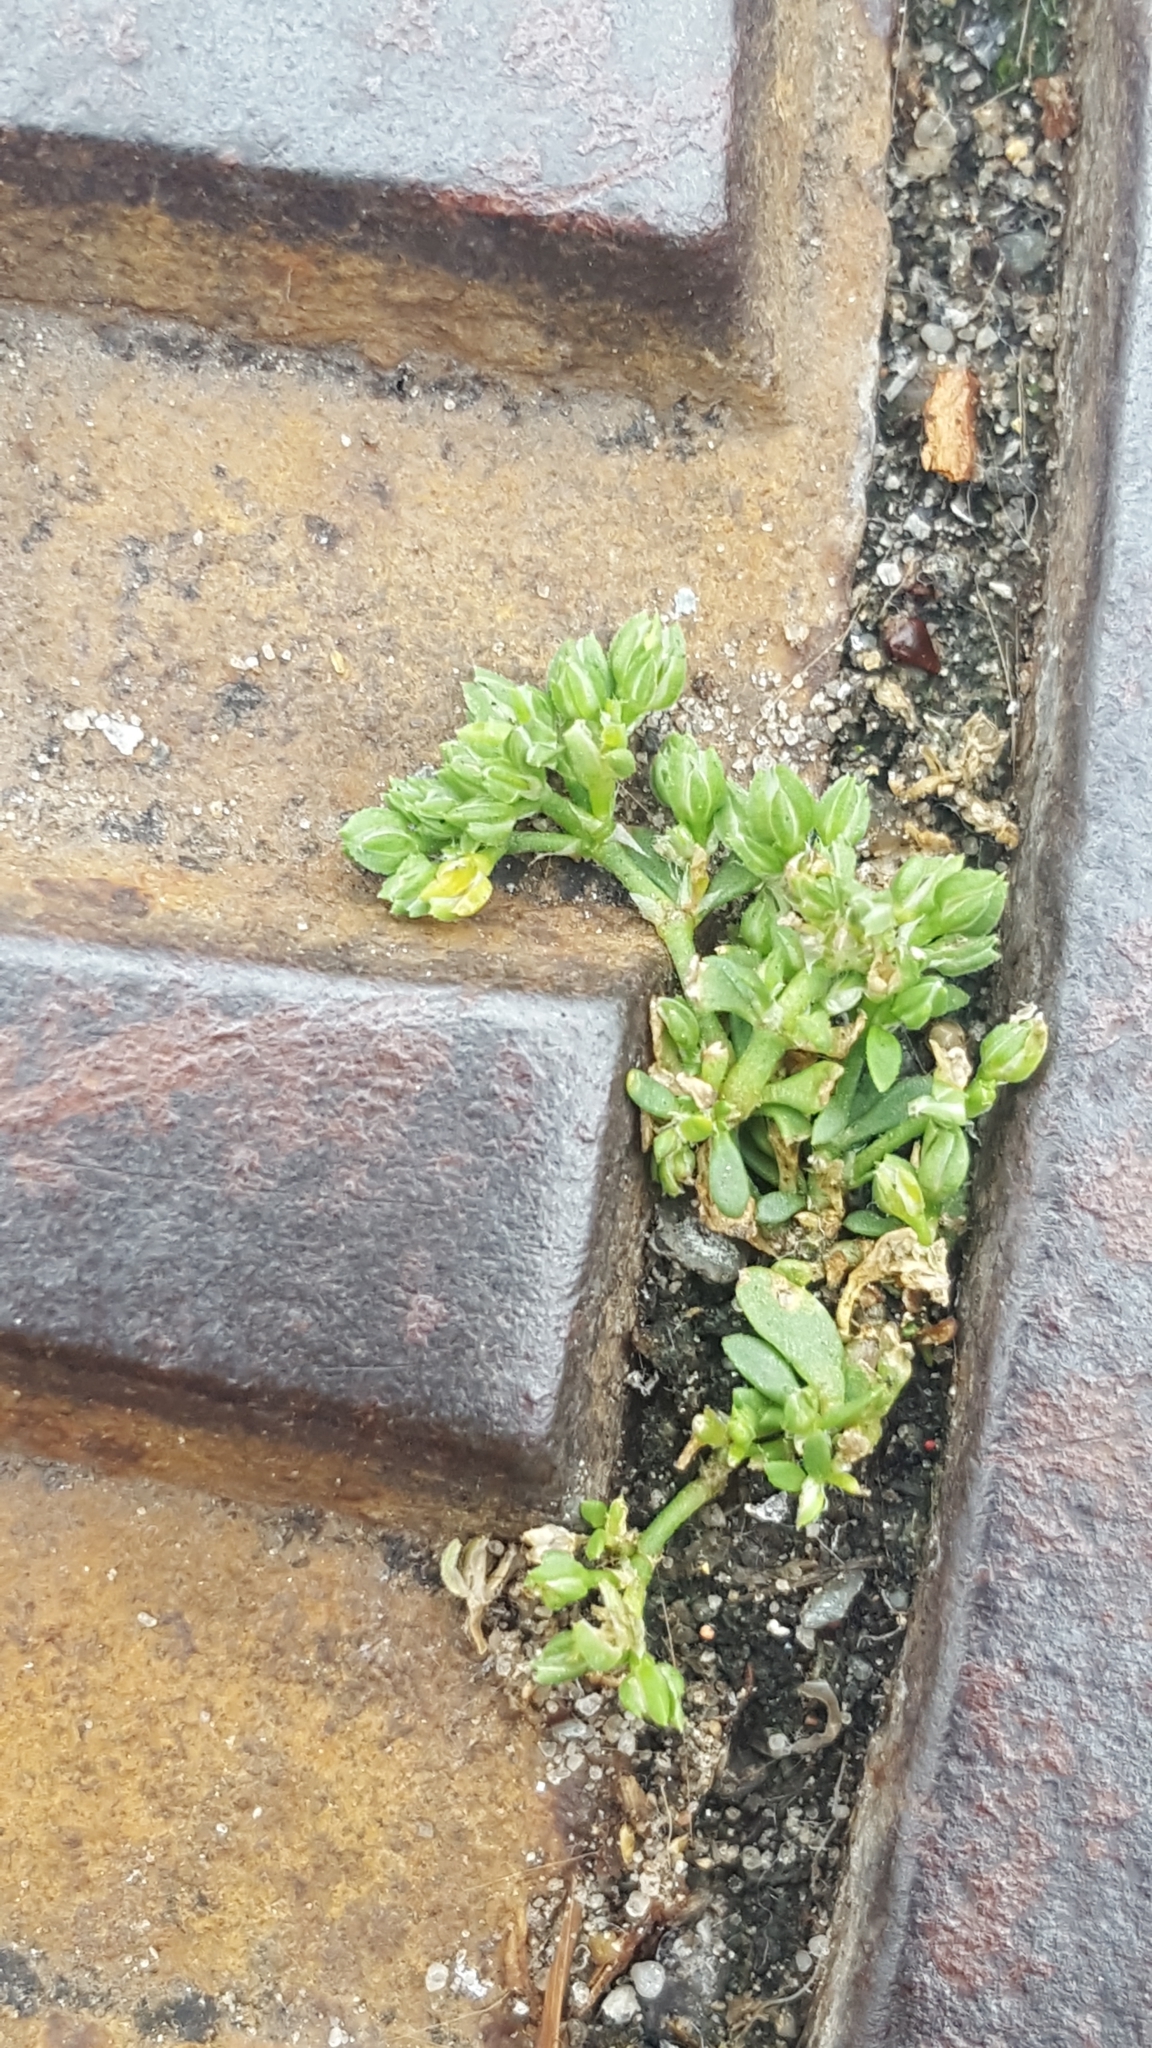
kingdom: Plantae
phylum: Tracheophyta
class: Magnoliopsida
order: Caryophyllales
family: Caryophyllaceae
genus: Polycarpon
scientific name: Polycarpon tetraphyllum
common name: Four-leaved all-seed
